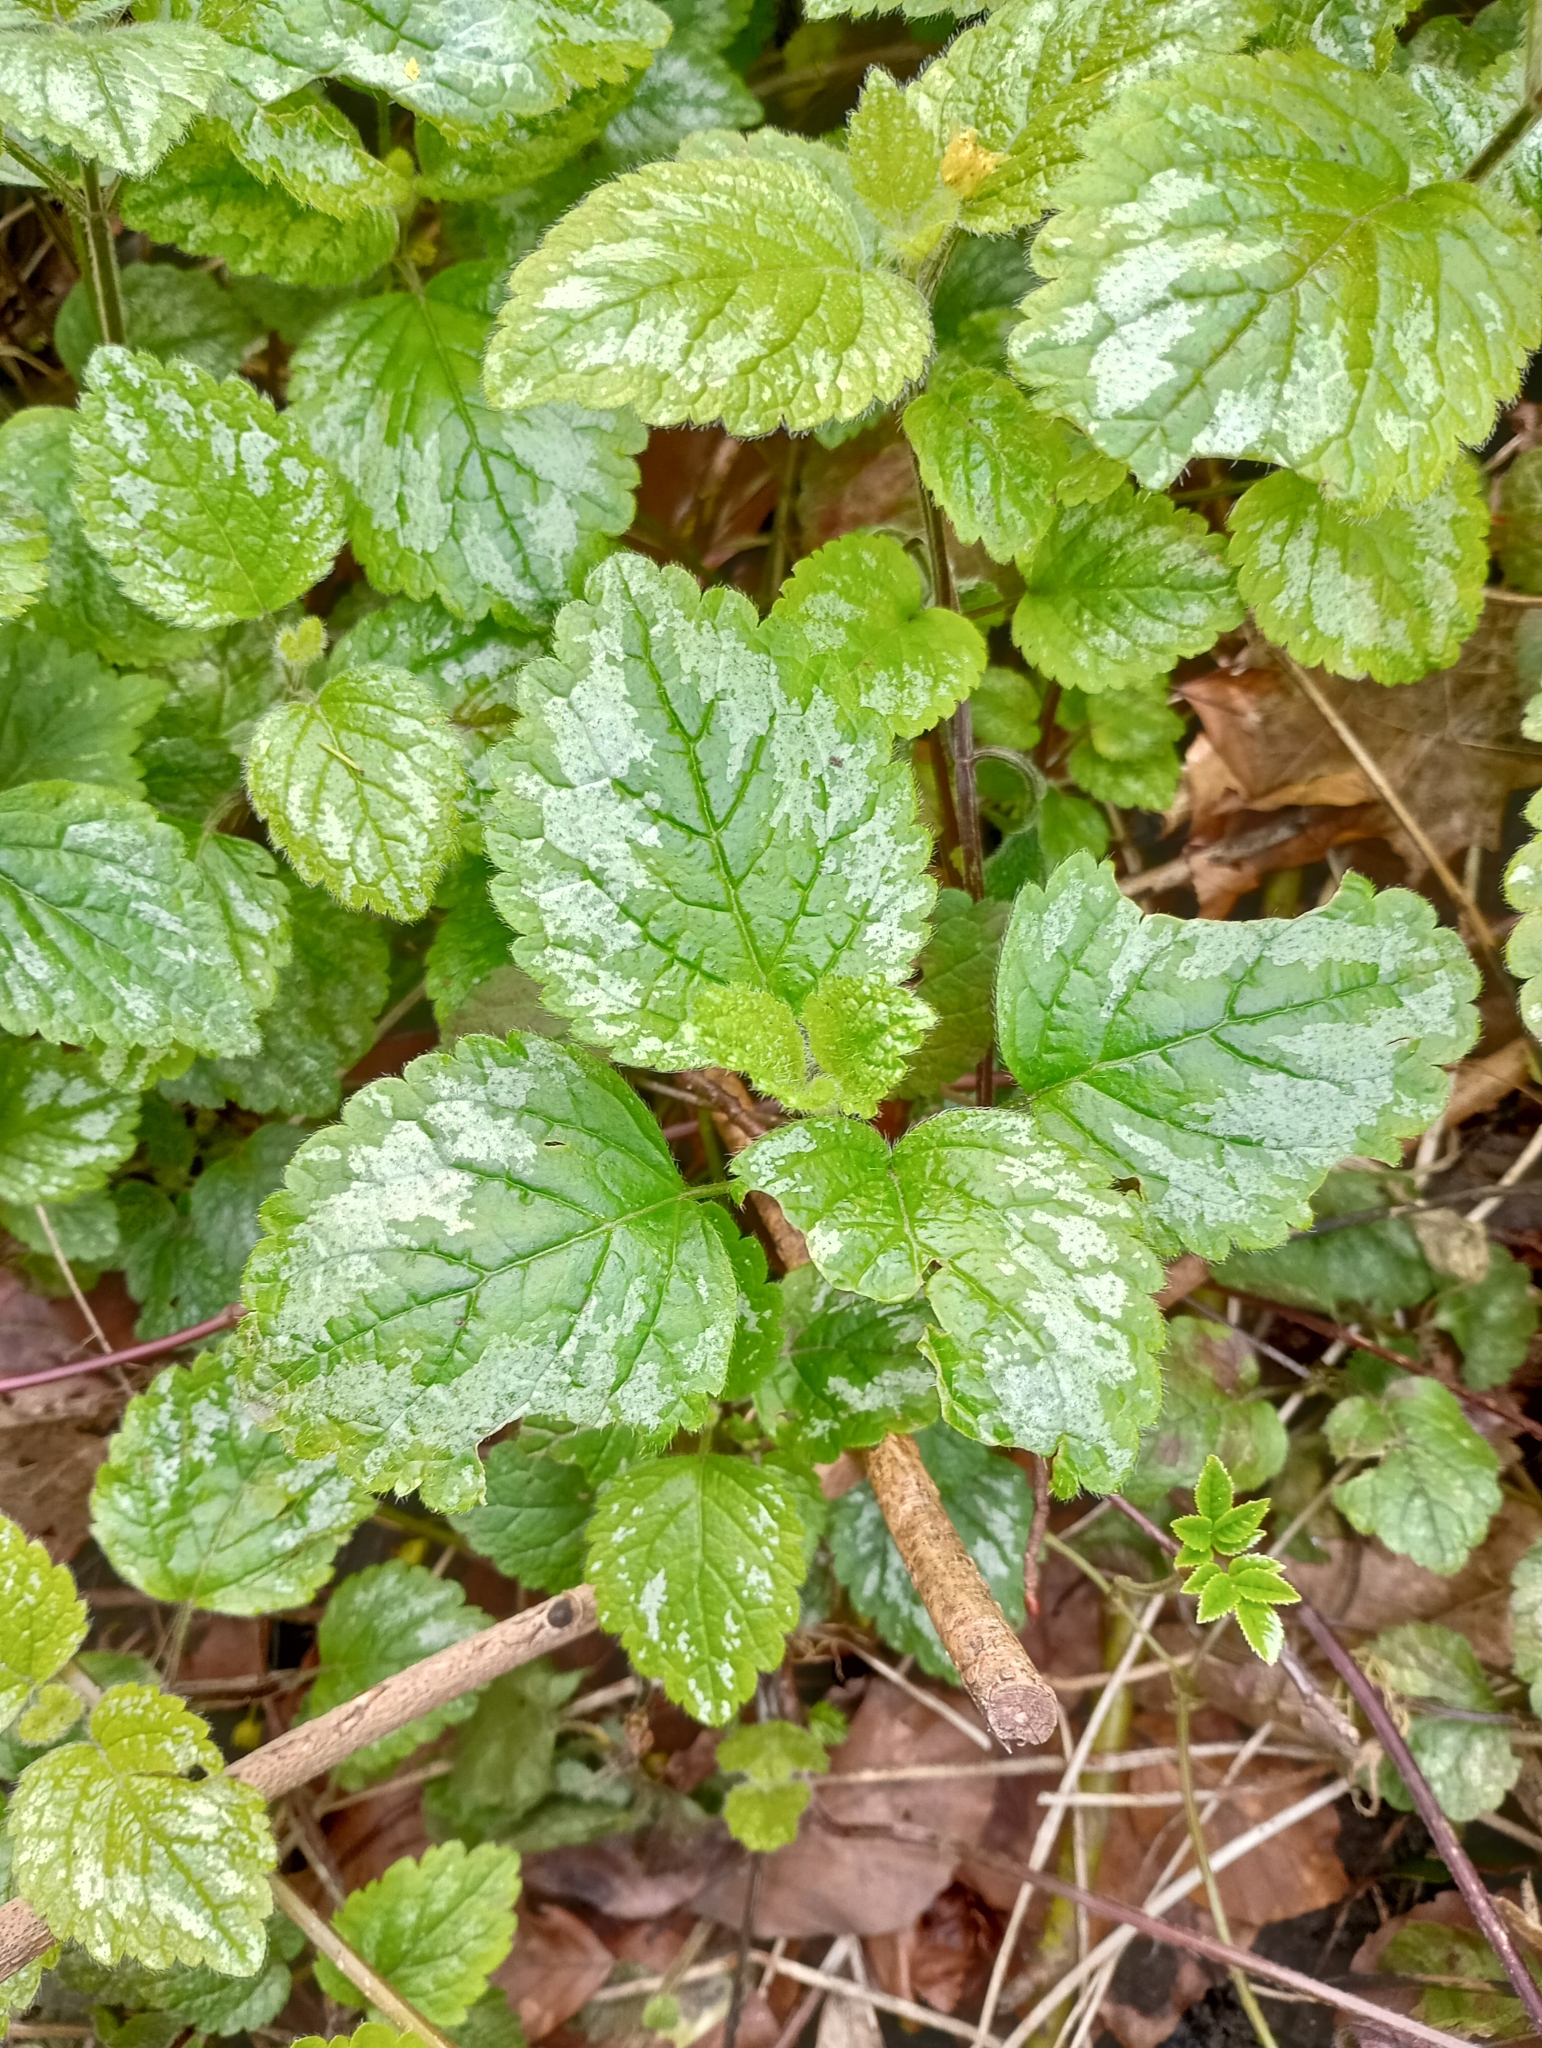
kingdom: Plantae
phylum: Tracheophyta
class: Magnoliopsida
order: Lamiales
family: Lamiaceae
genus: Lamium
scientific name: Lamium galeobdolon
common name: Yellow archangel
